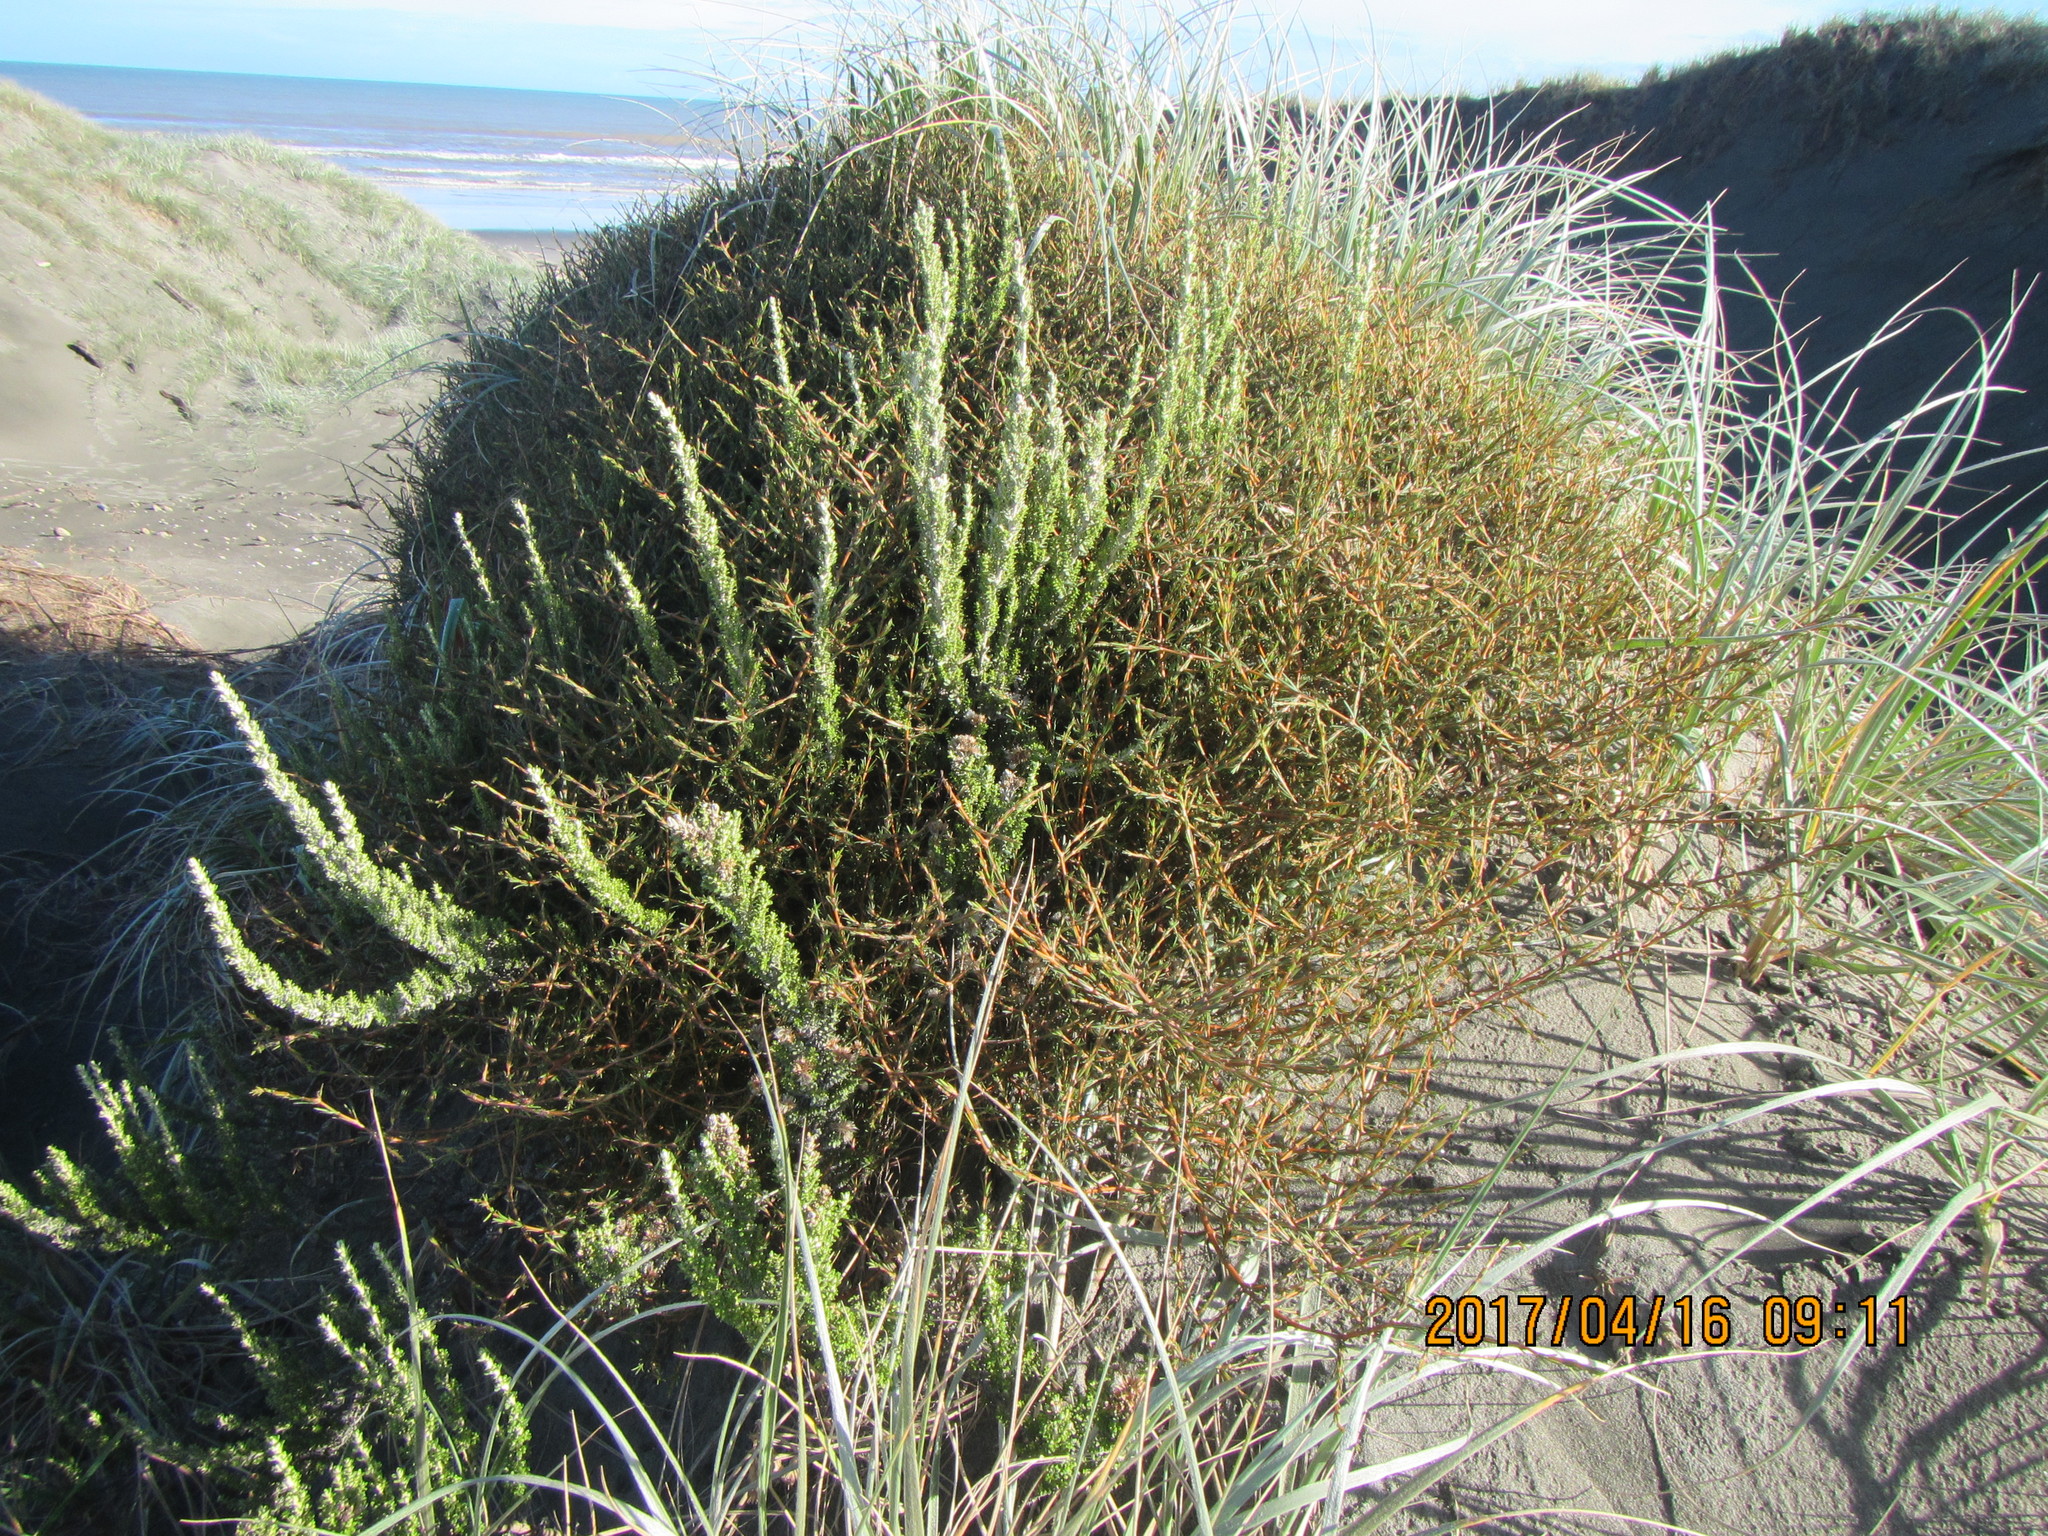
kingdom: Plantae
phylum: Tracheophyta
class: Magnoliopsida
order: Gentianales
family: Rubiaceae
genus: Coprosma
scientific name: Coprosma acerosa
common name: Sand coprosma
